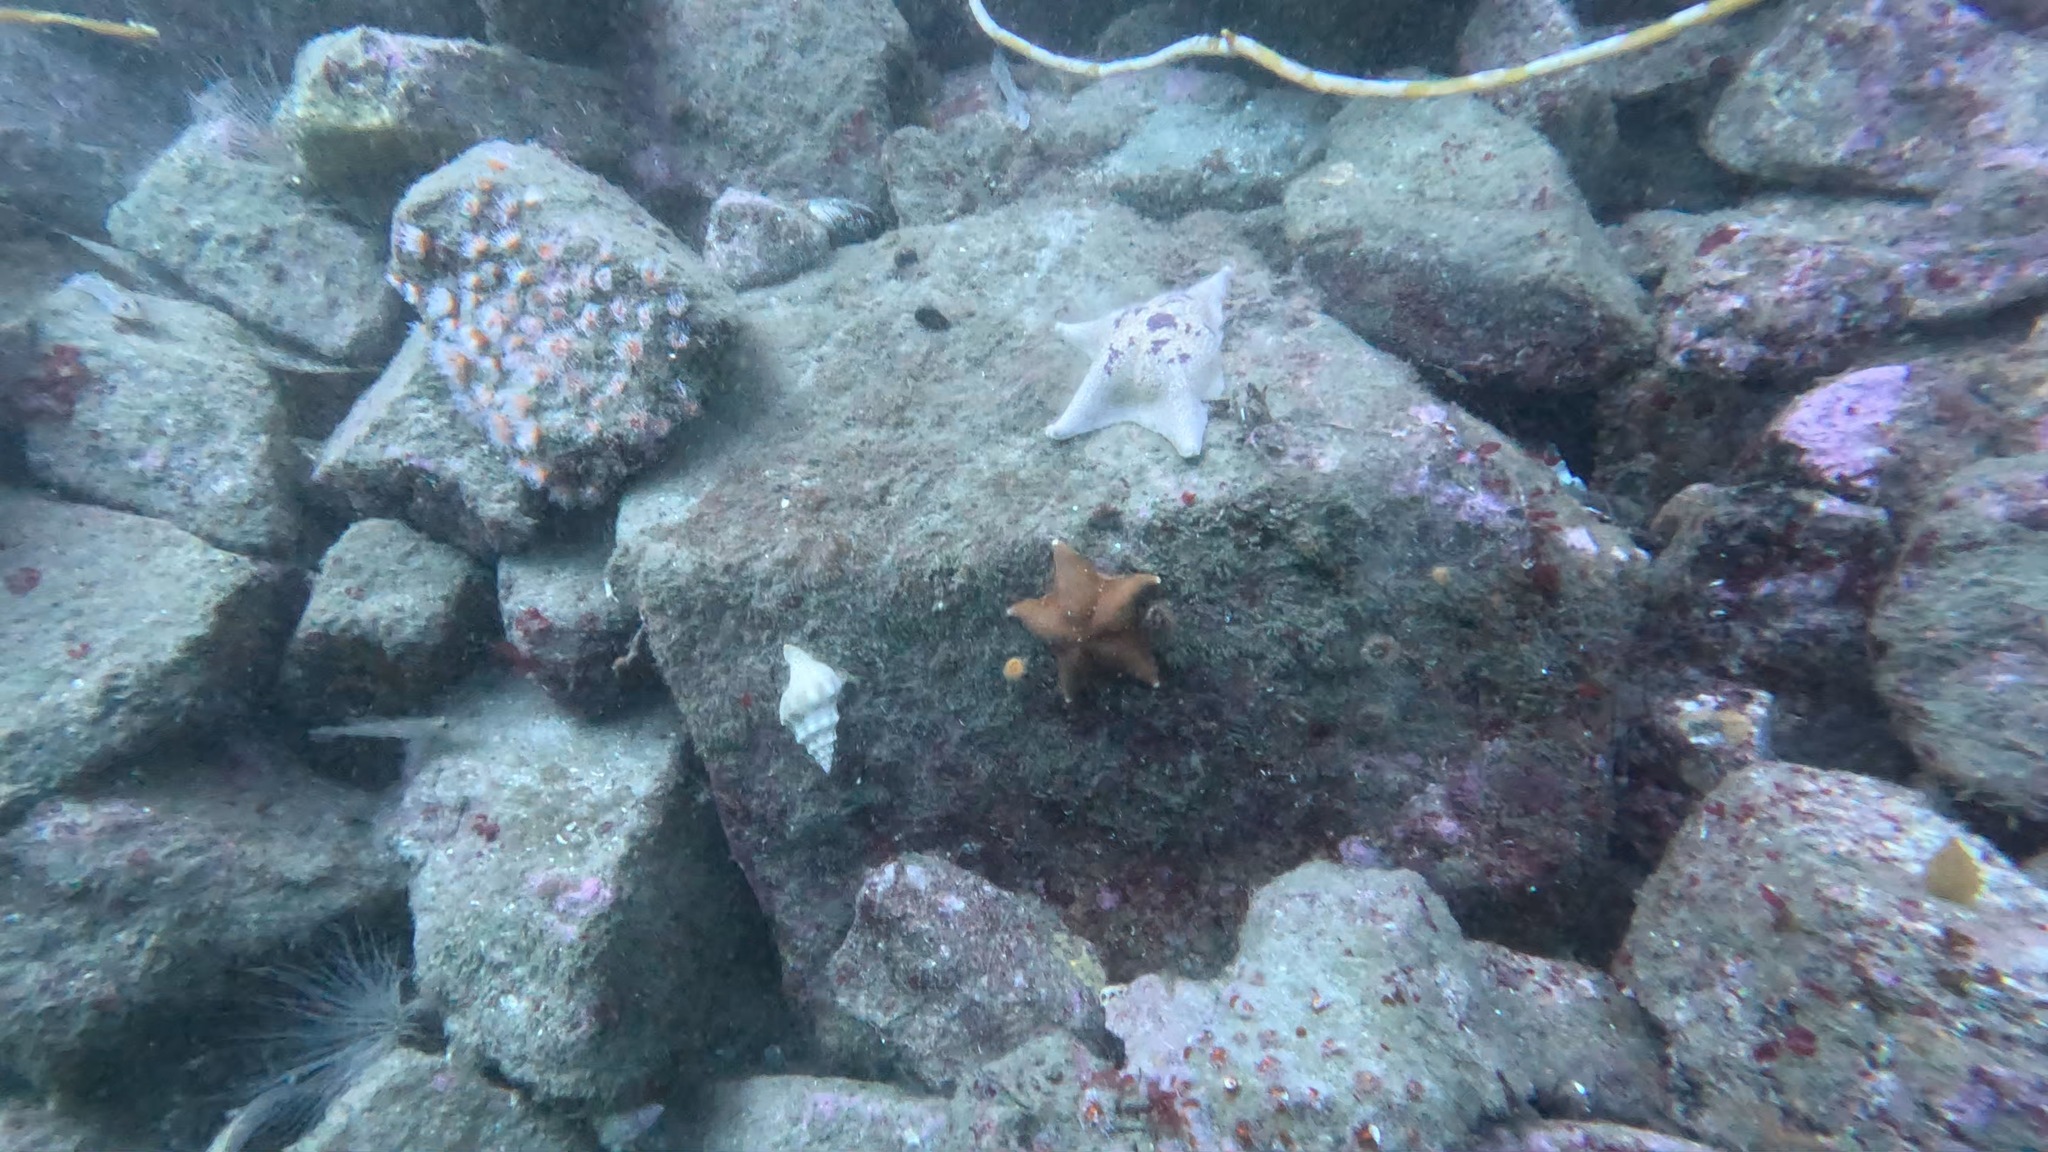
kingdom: Animalia
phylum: Mollusca
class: Gastropoda
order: Neogastropoda
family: Austrosiphonidae
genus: Kelletia
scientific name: Kelletia kelletii
